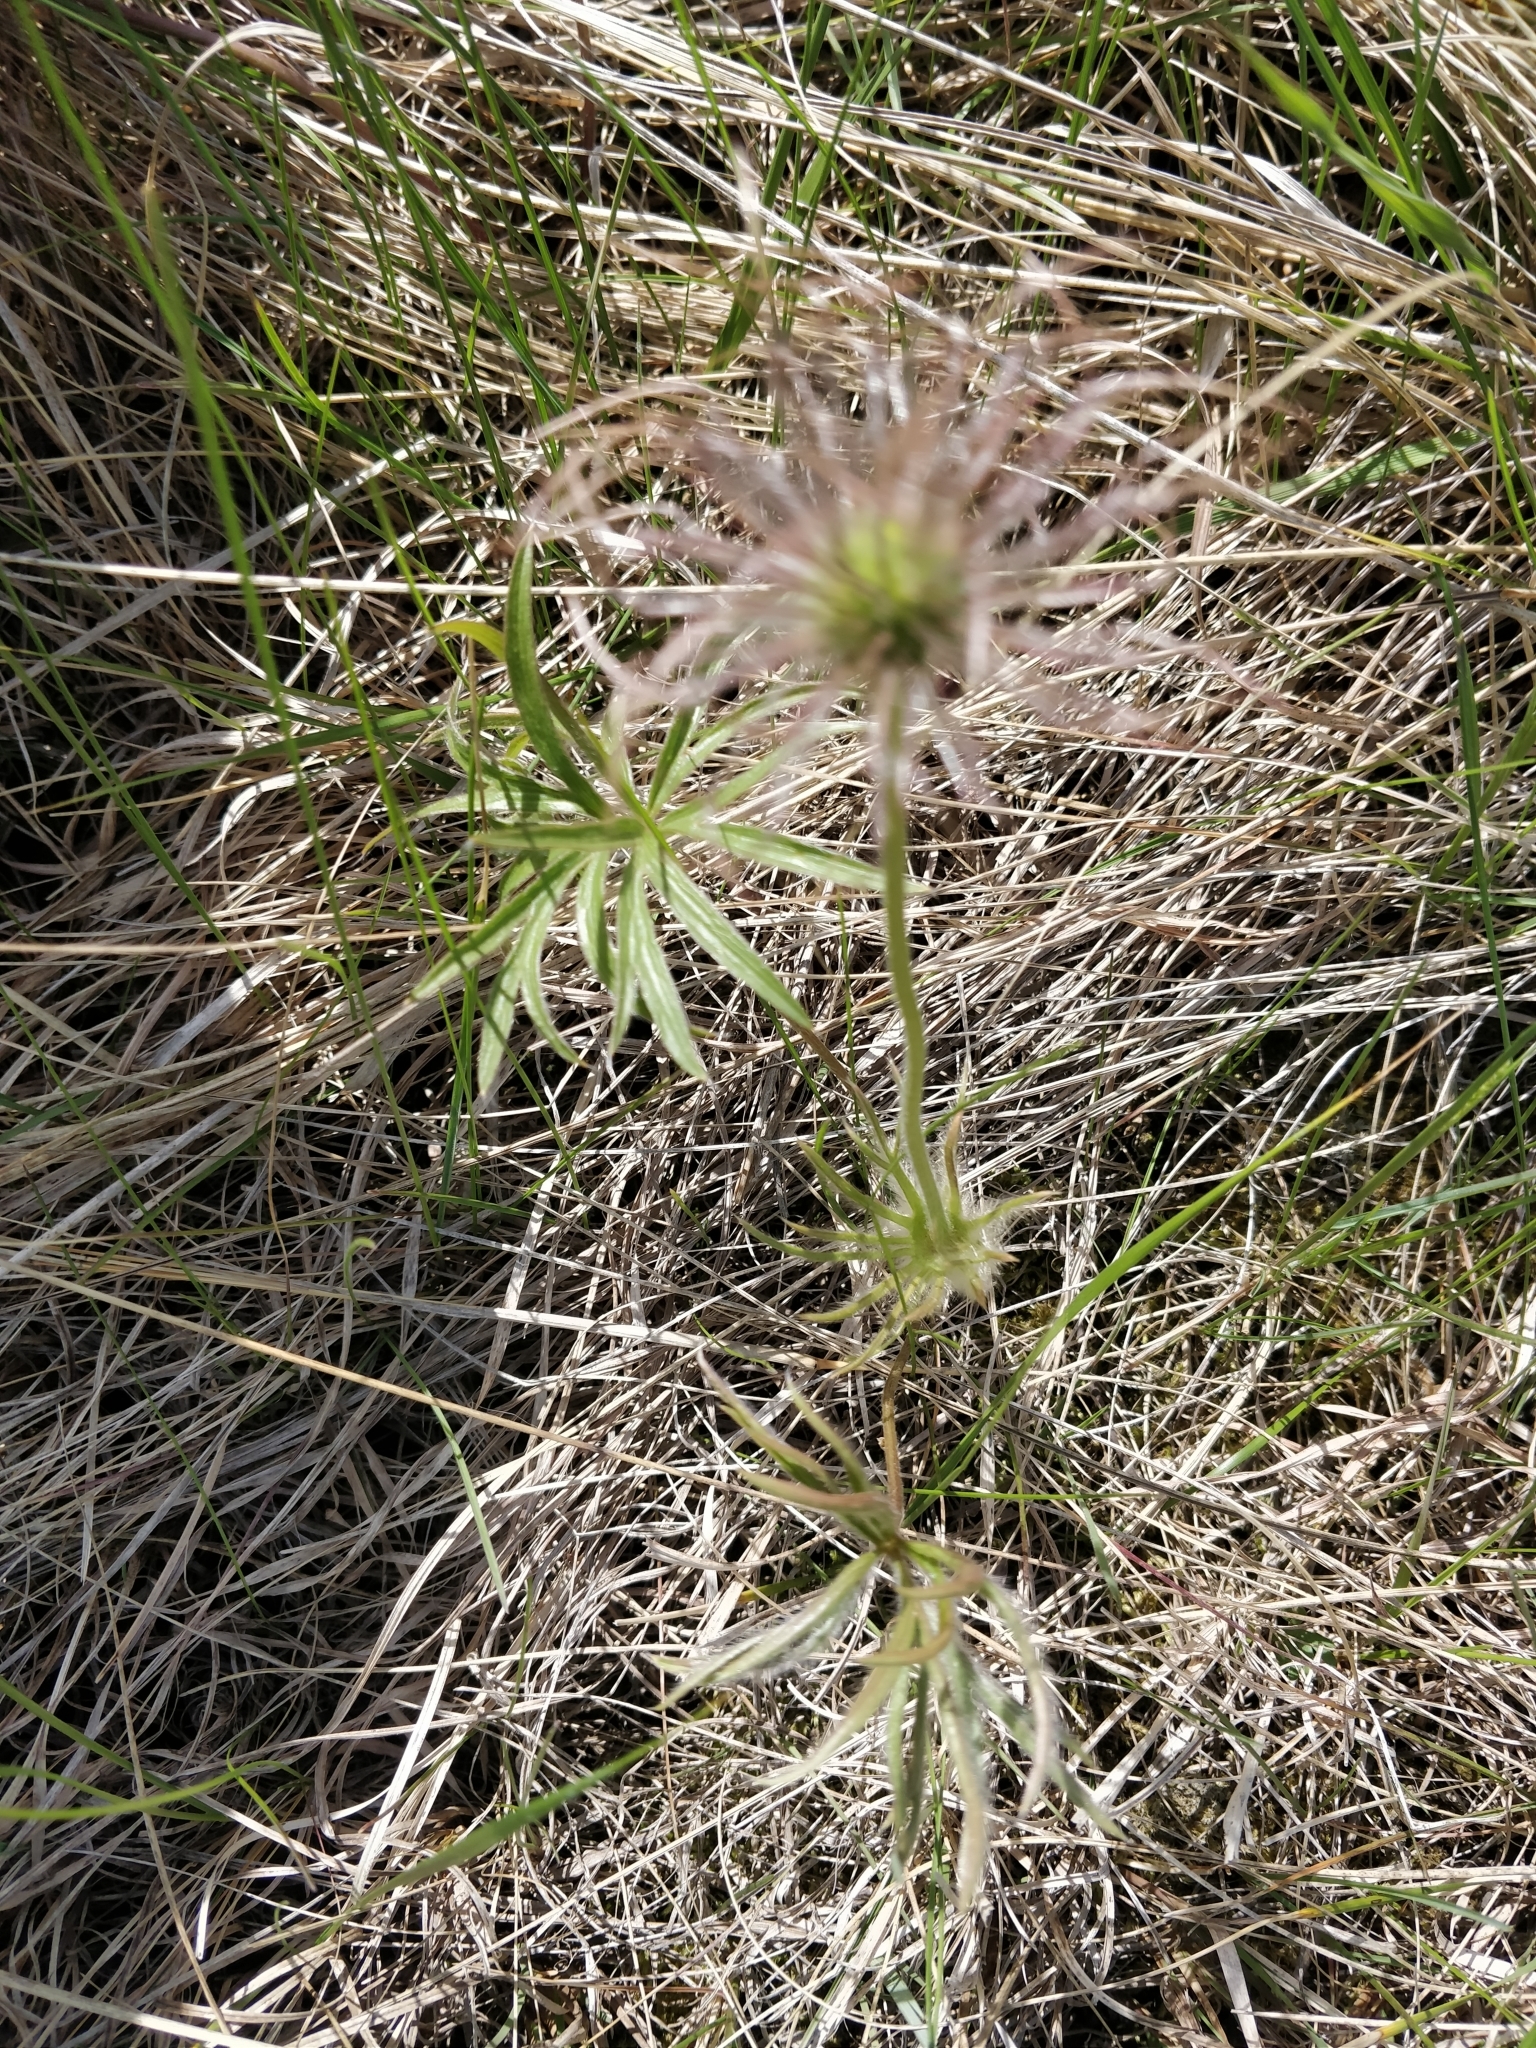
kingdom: Plantae
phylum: Tracheophyta
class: Magnoliopsida
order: Ranunculales
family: Ranunculaceae
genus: Pulsatilla
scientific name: Pulsatilla nuttalliana
